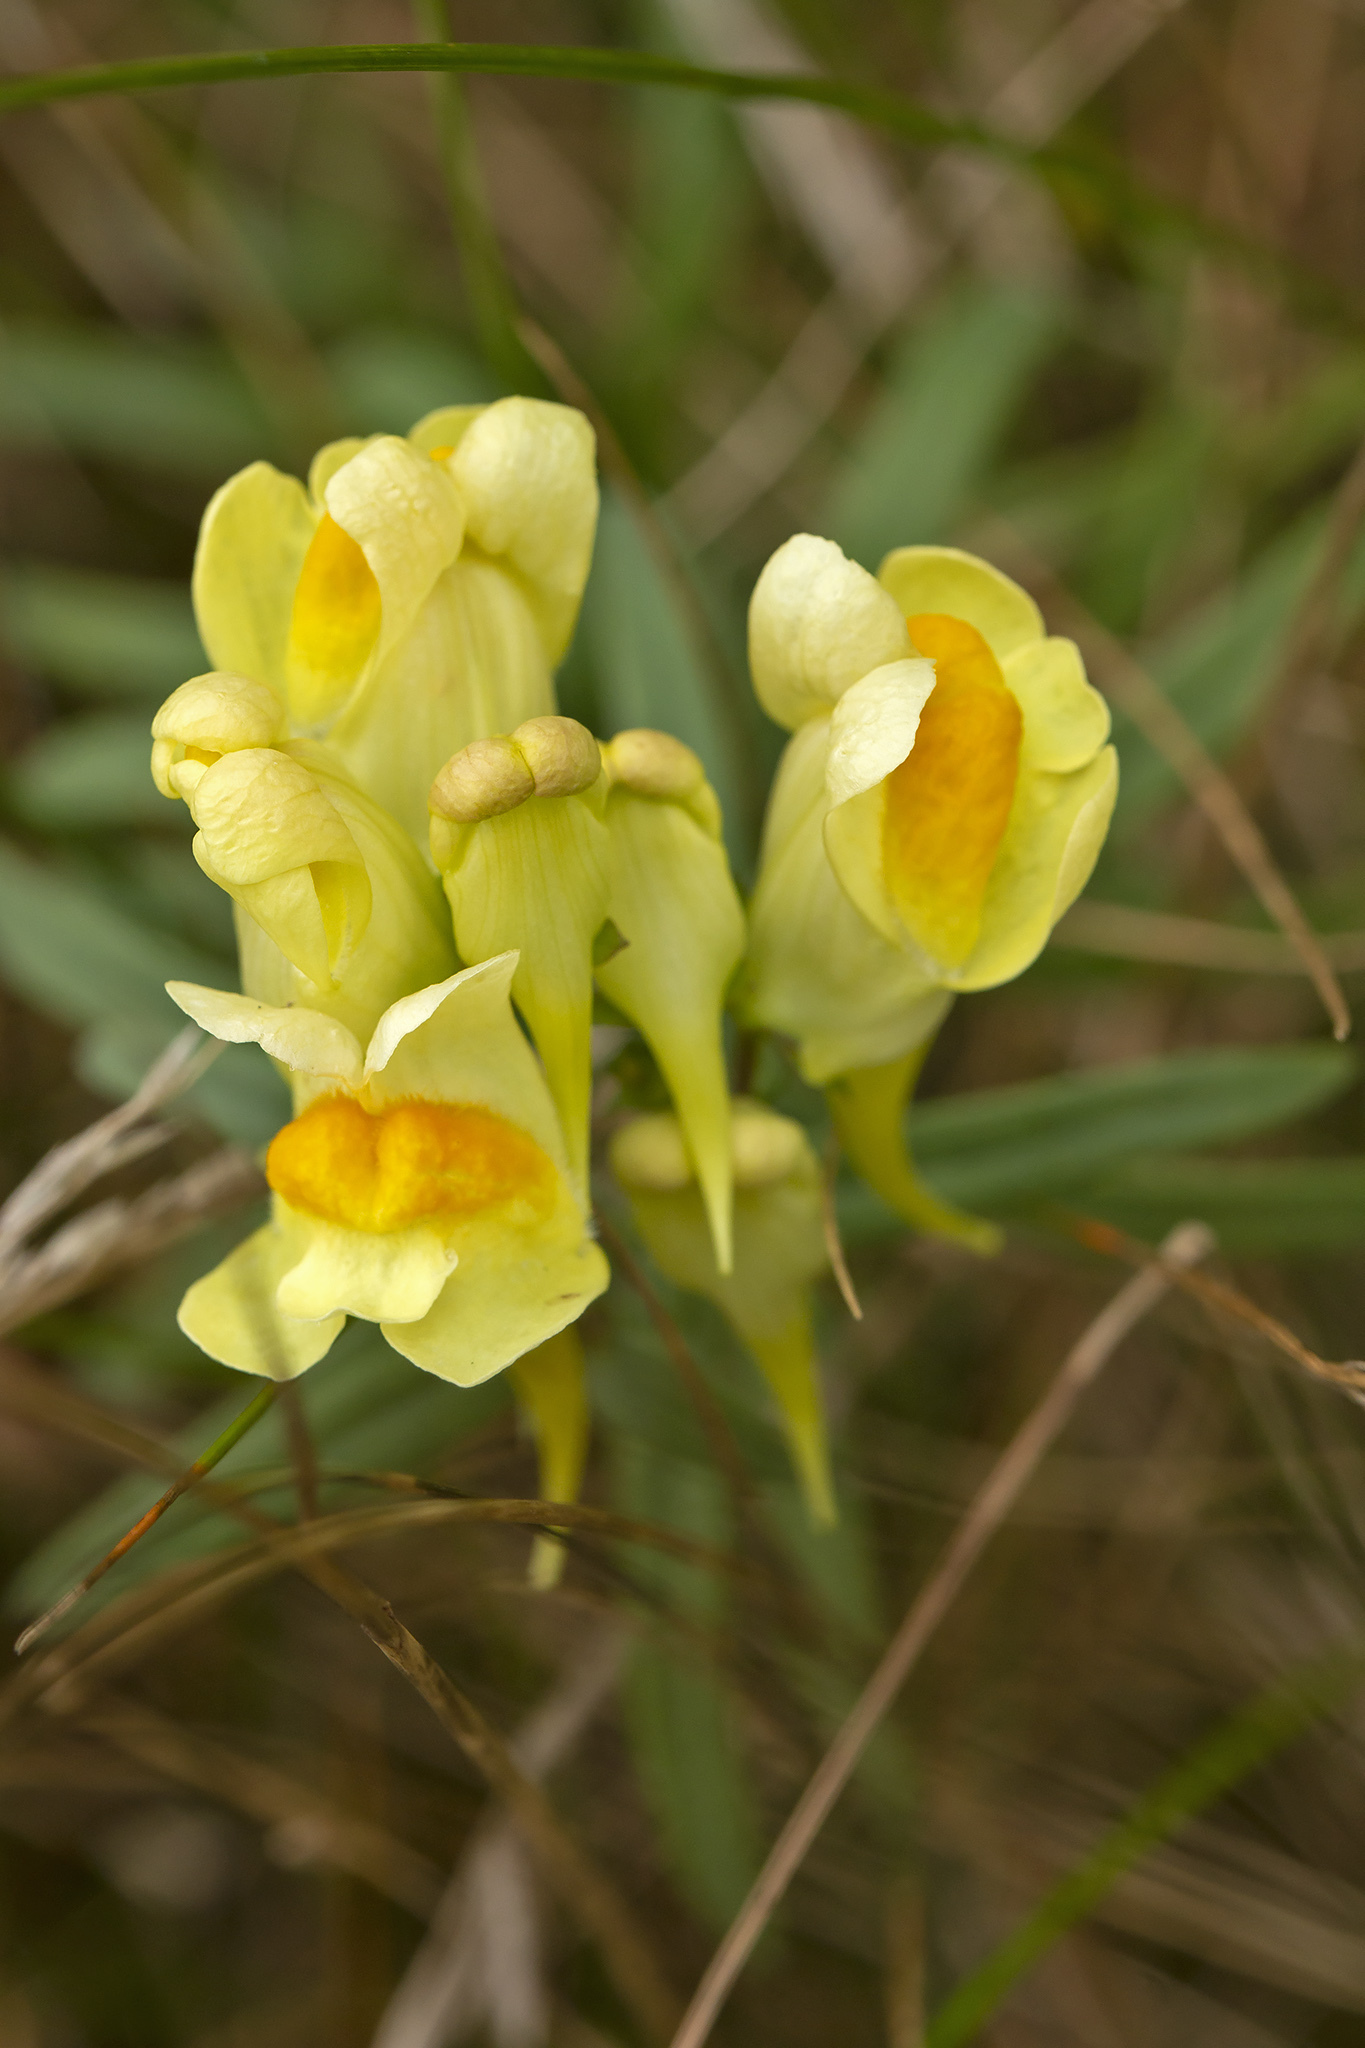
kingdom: Plantae
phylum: Tracheophyta
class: Magnoliopsida
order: Lamiales
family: Plantaginaceae
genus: Linaria
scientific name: Linaria vulgaris
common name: Butter and eggs
